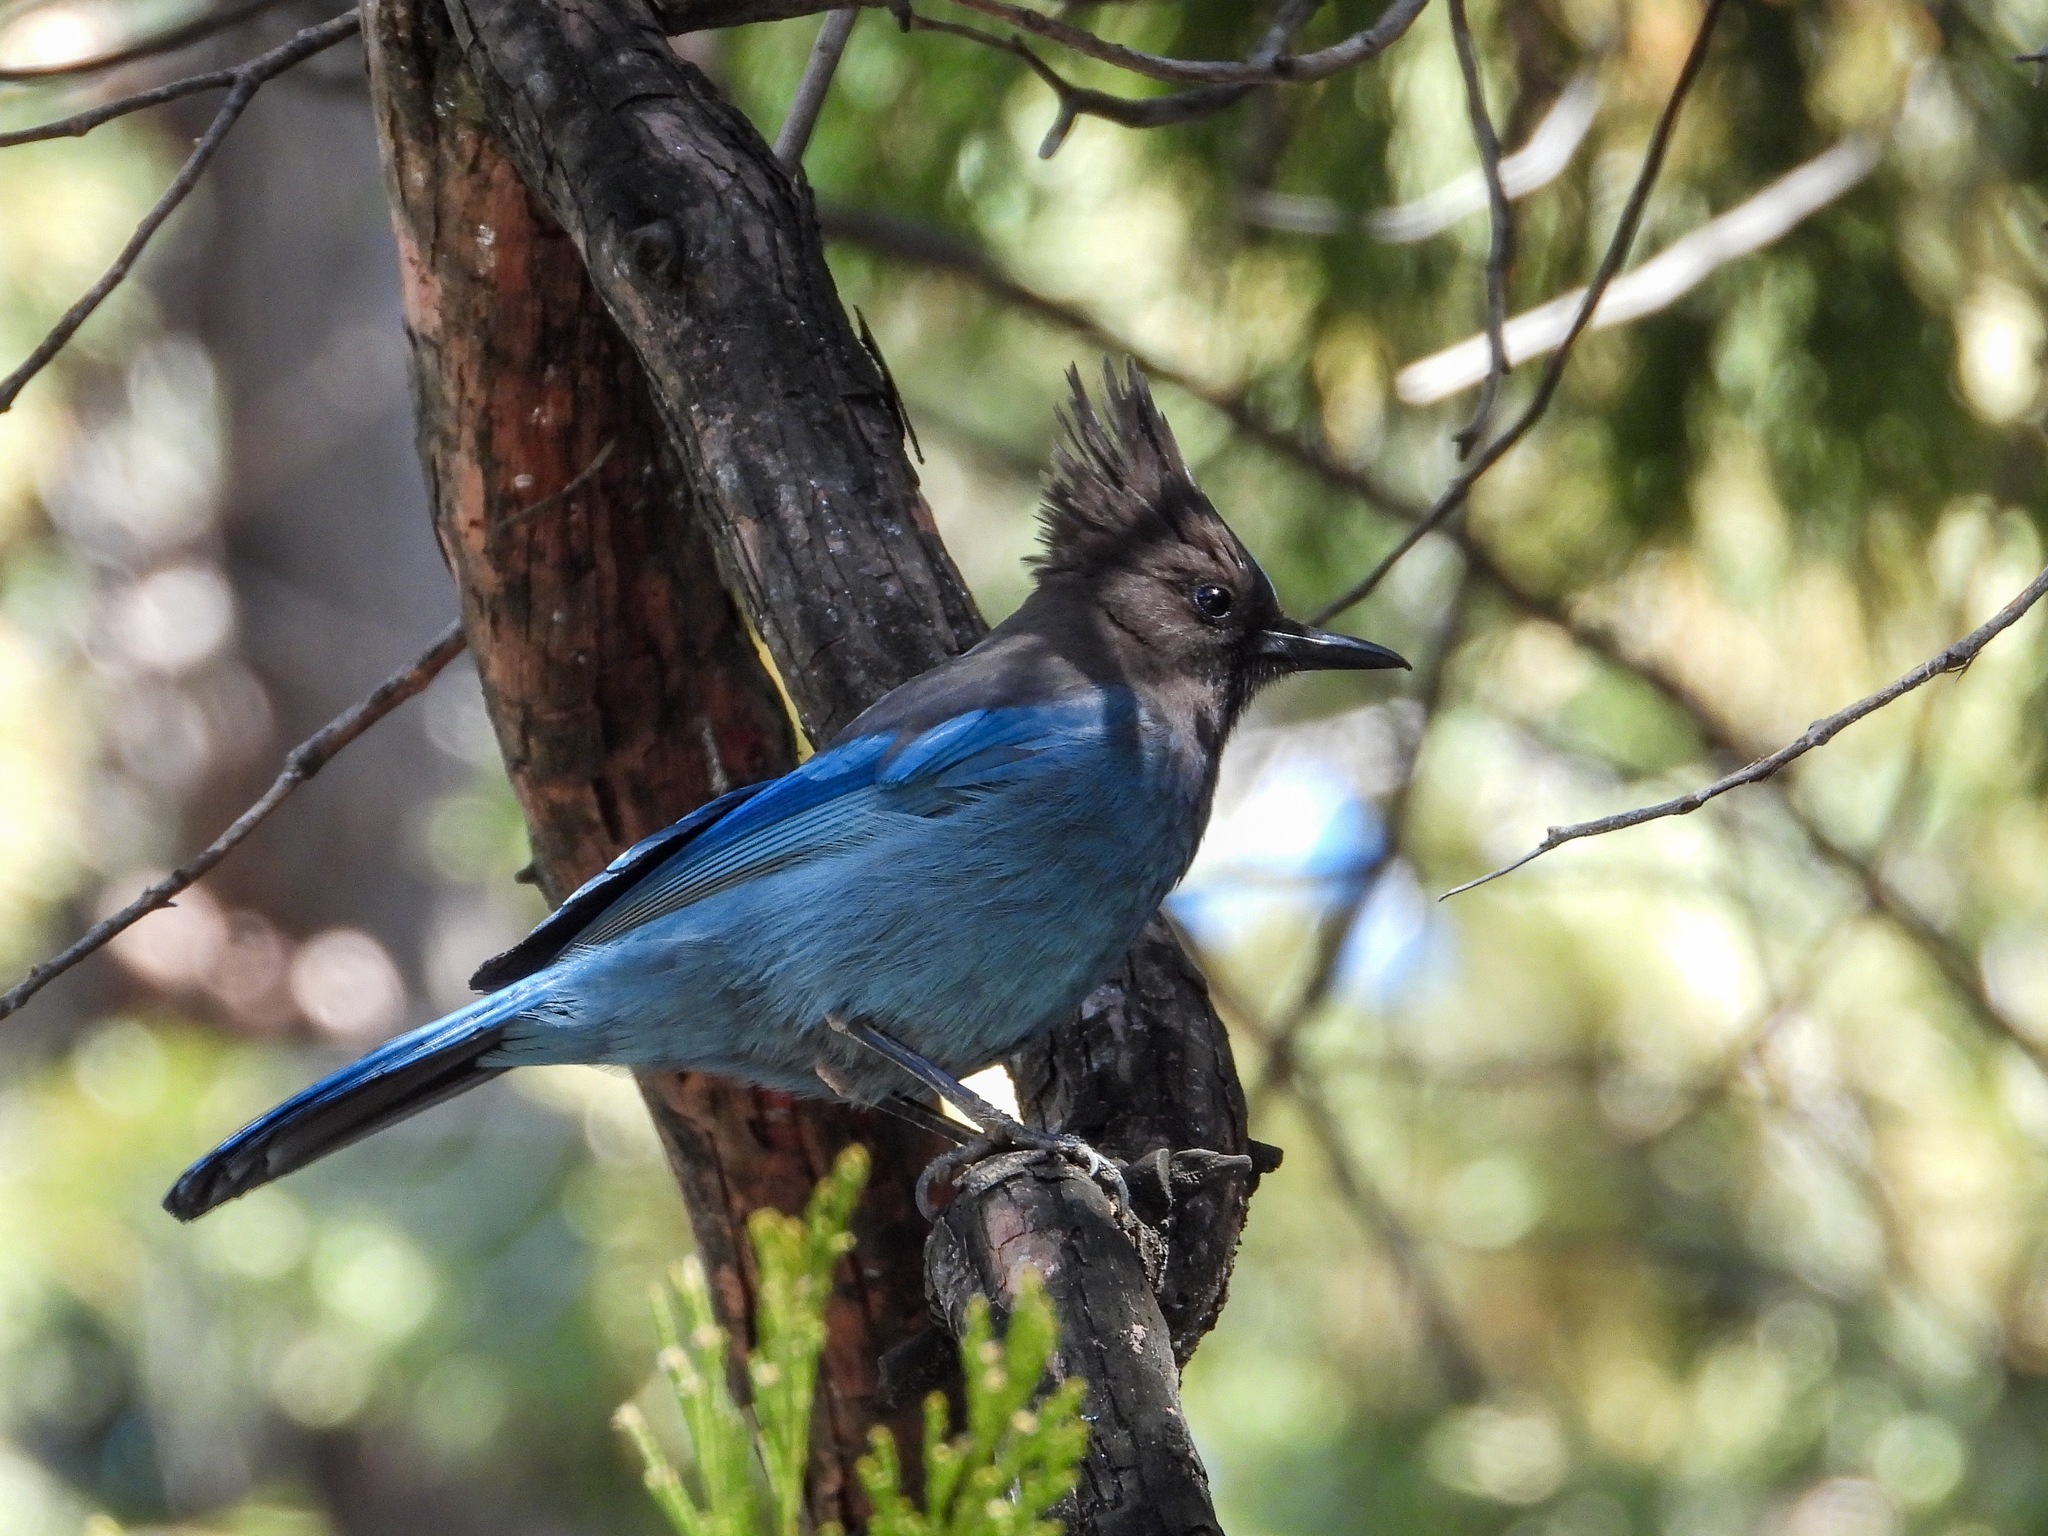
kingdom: Animalia
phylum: Chordata
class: Aves
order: Passeriformes
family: Corvidae
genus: Cyanocitta
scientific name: Cyanocitta stelleri
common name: Steller's jay
